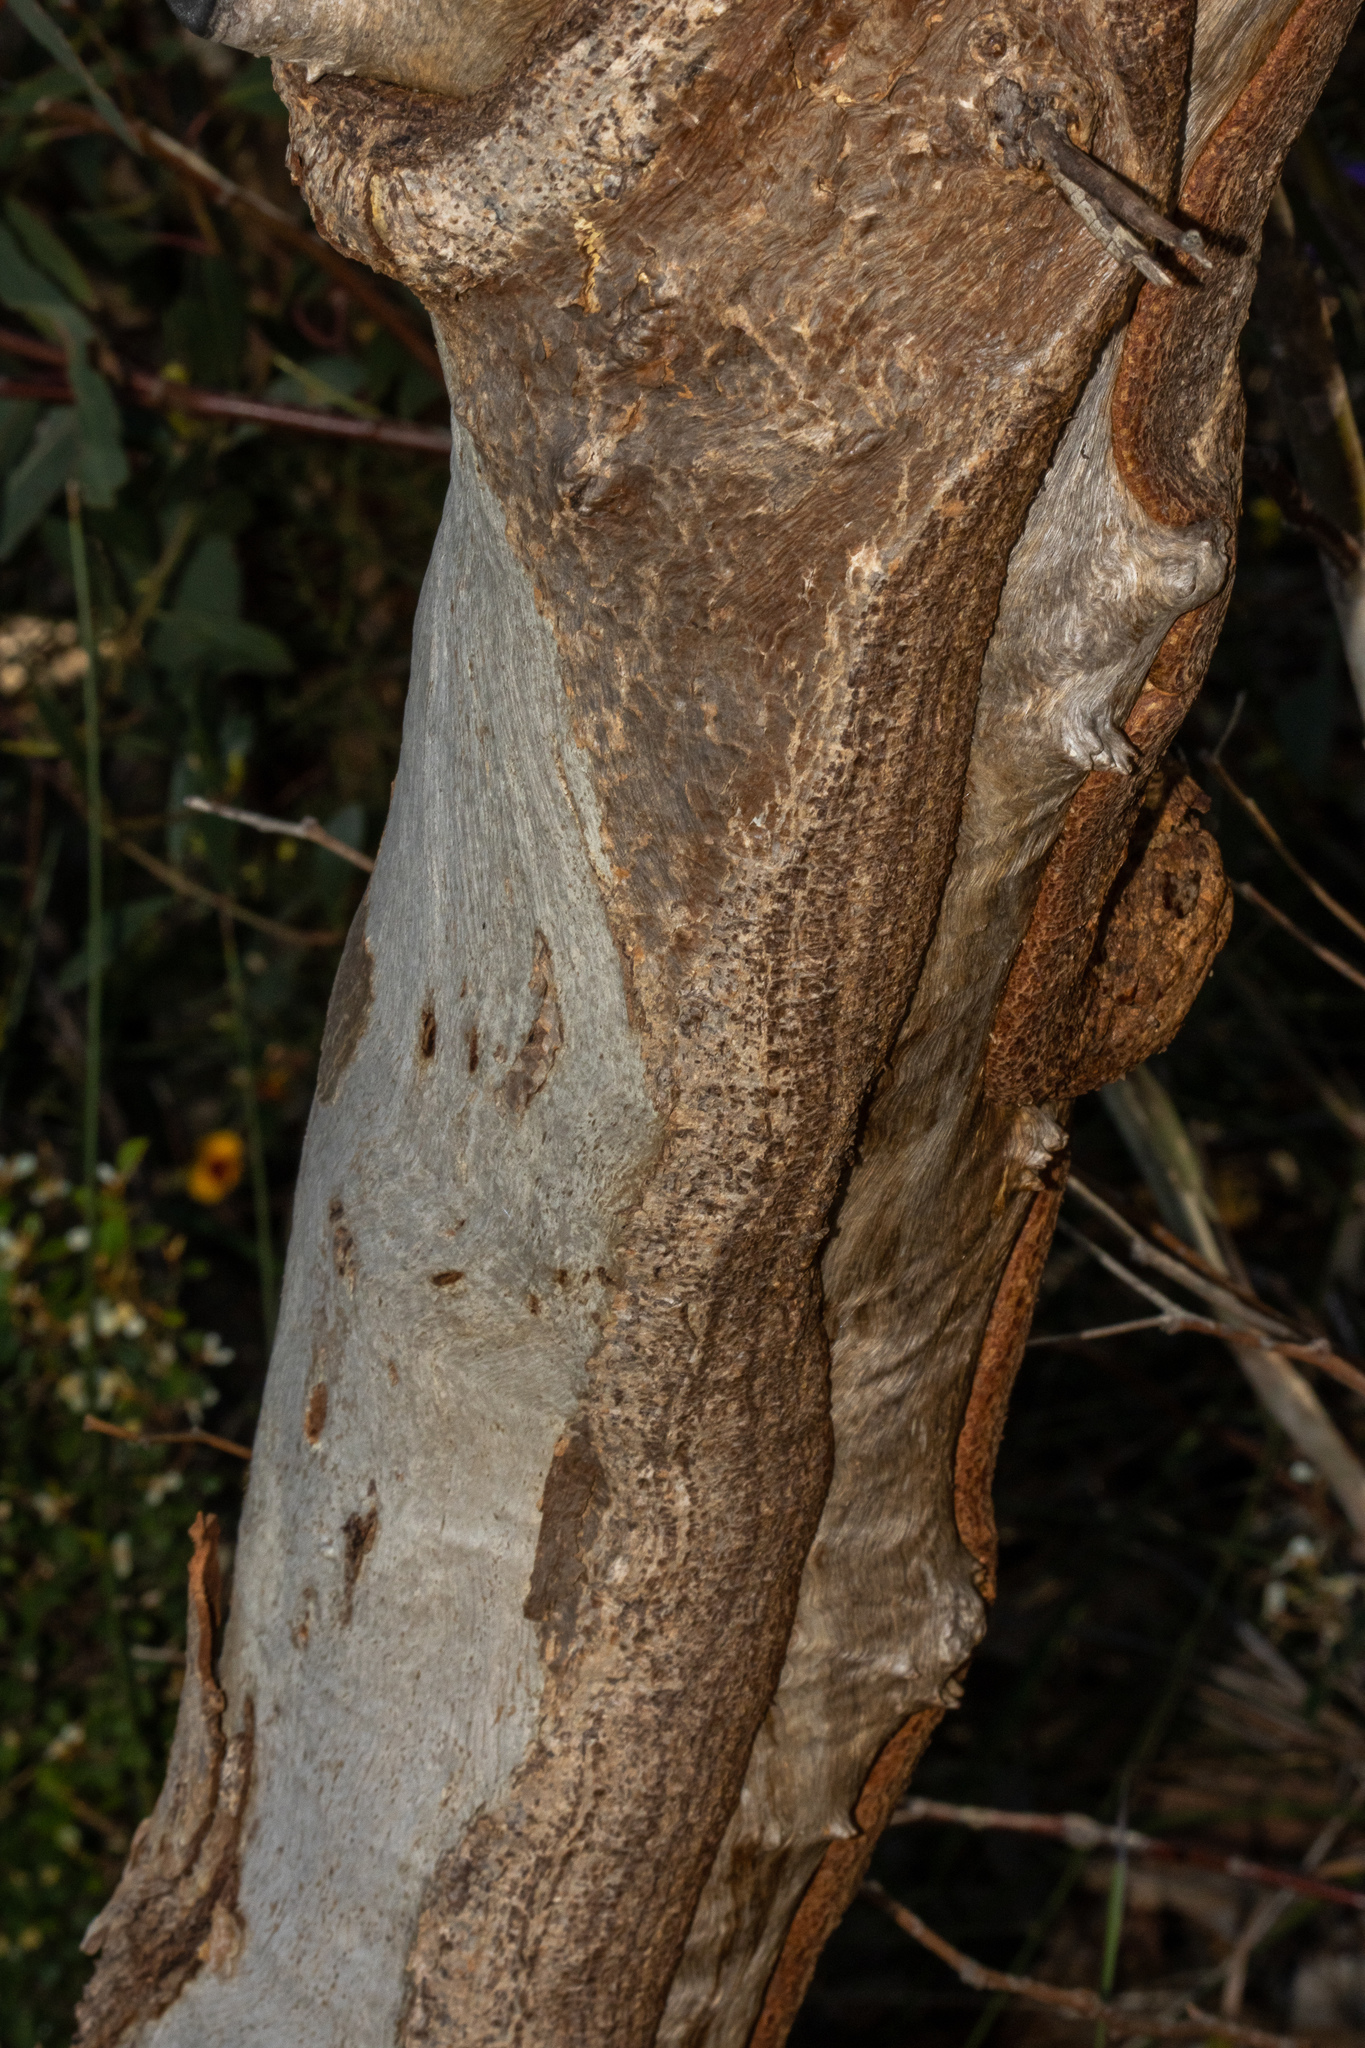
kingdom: Plantae
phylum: Tracheophyta
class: Magnoliopsida
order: Myrtales
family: Myrtaceae
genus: Eucalyptus
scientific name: Eucalyptus fasciculosa
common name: Hill gum
